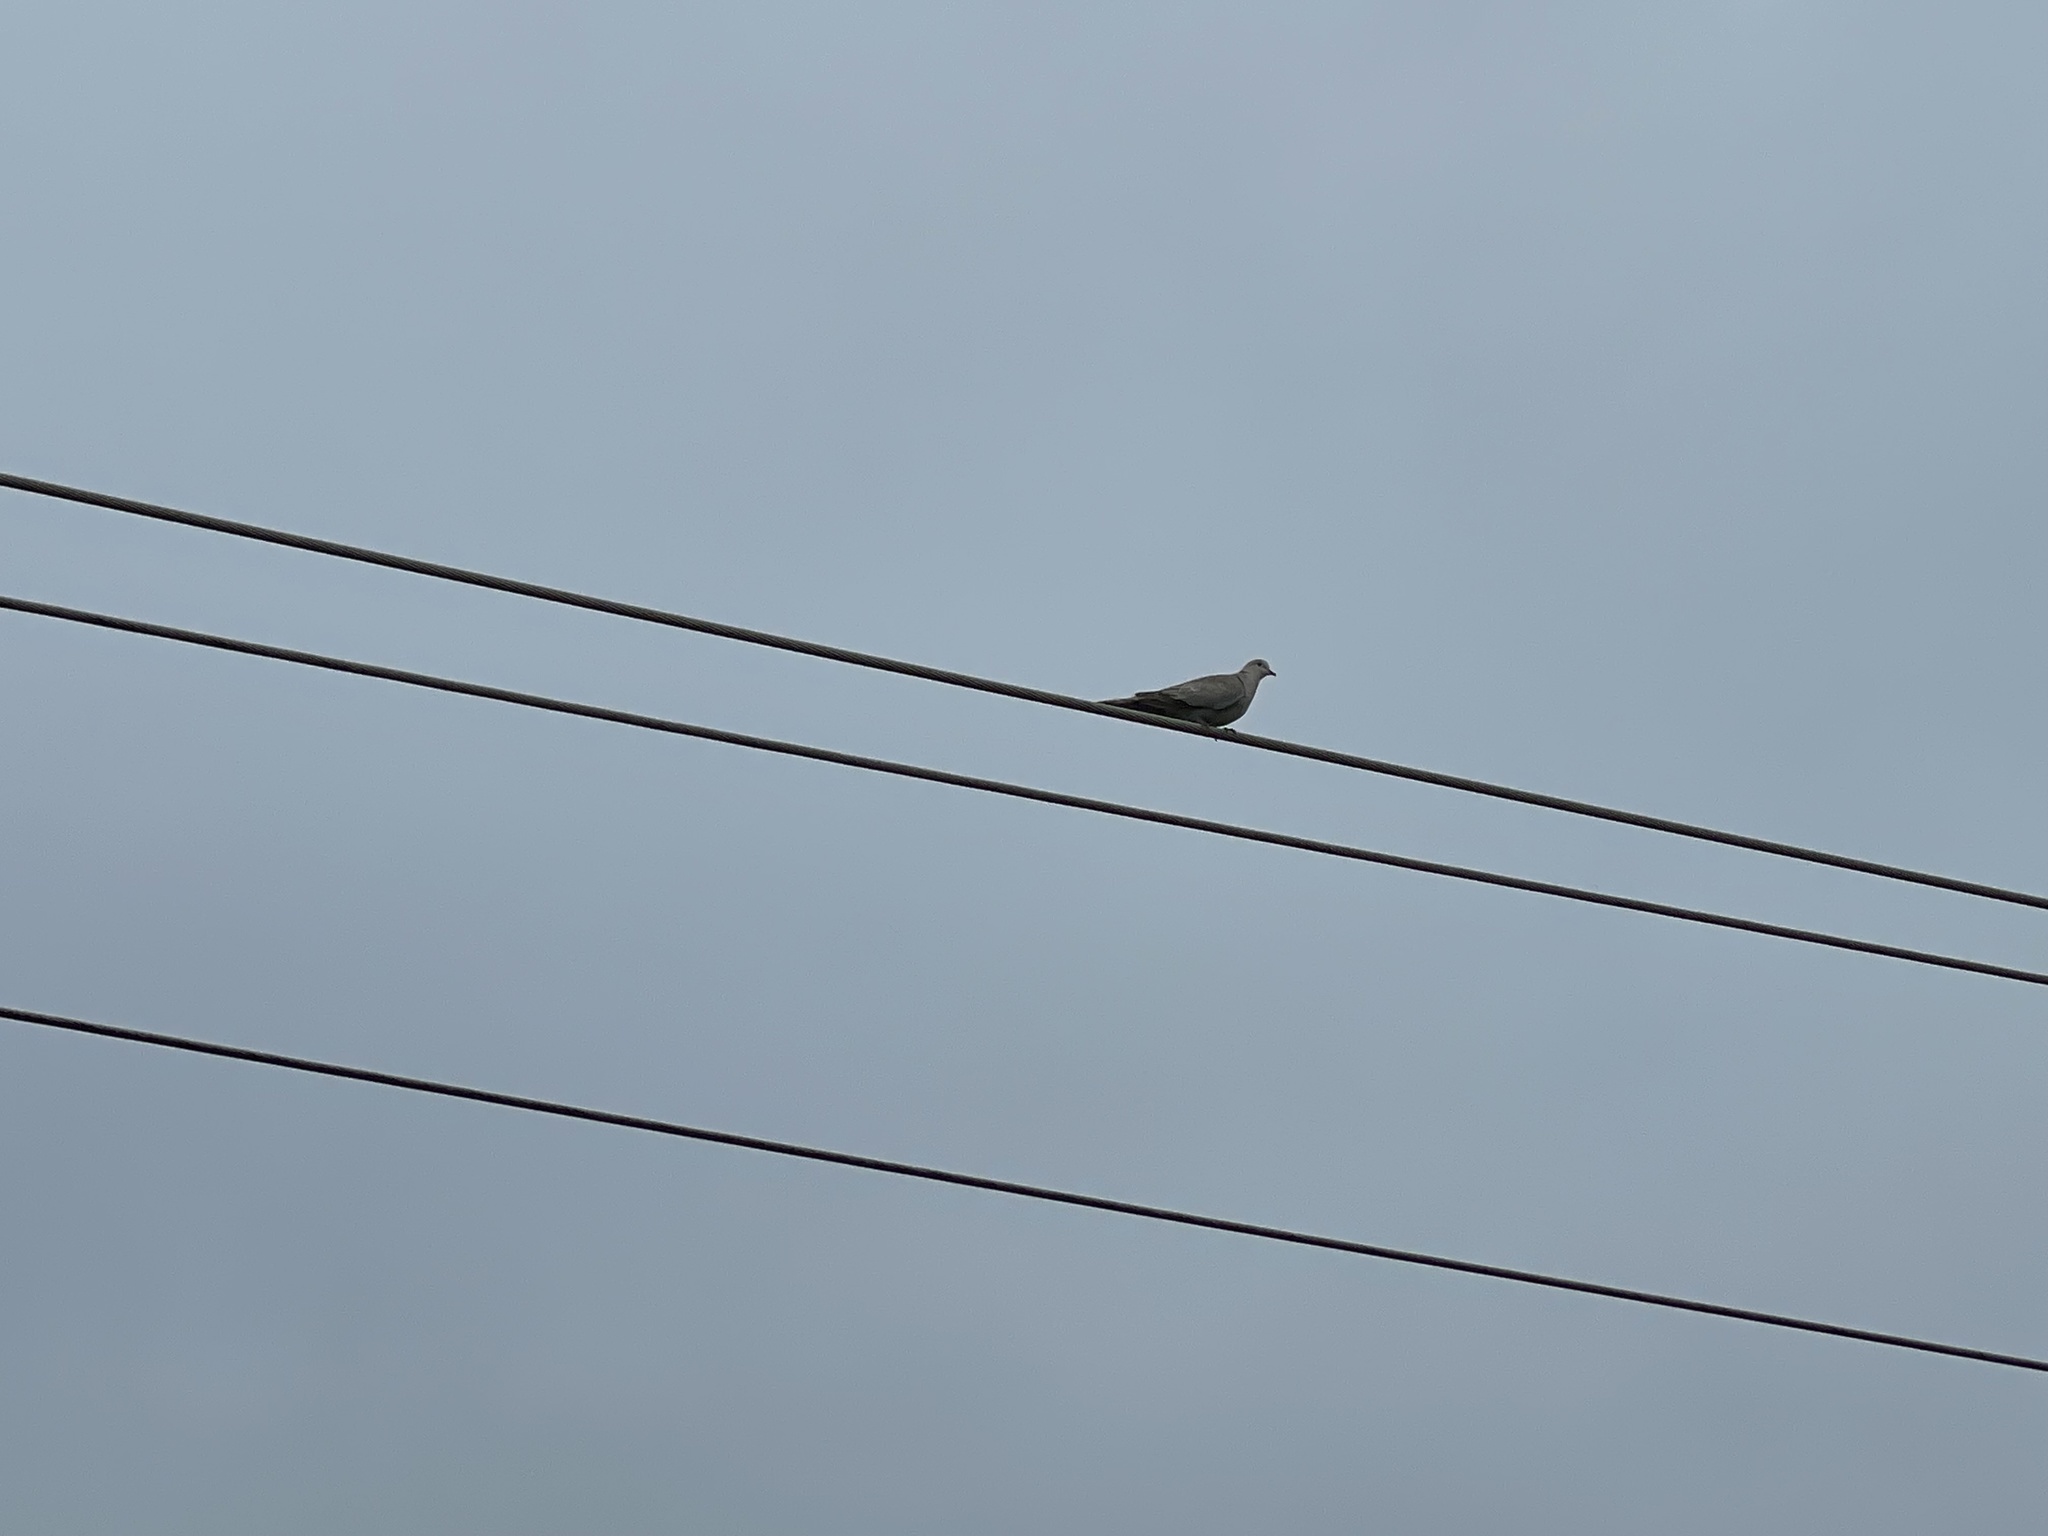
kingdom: Animalia
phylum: Chordata
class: Aves
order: Columbiformes
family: Columbidae
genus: Streptopelia
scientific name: Streptopelia decaocto
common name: Eurasian collared dove
